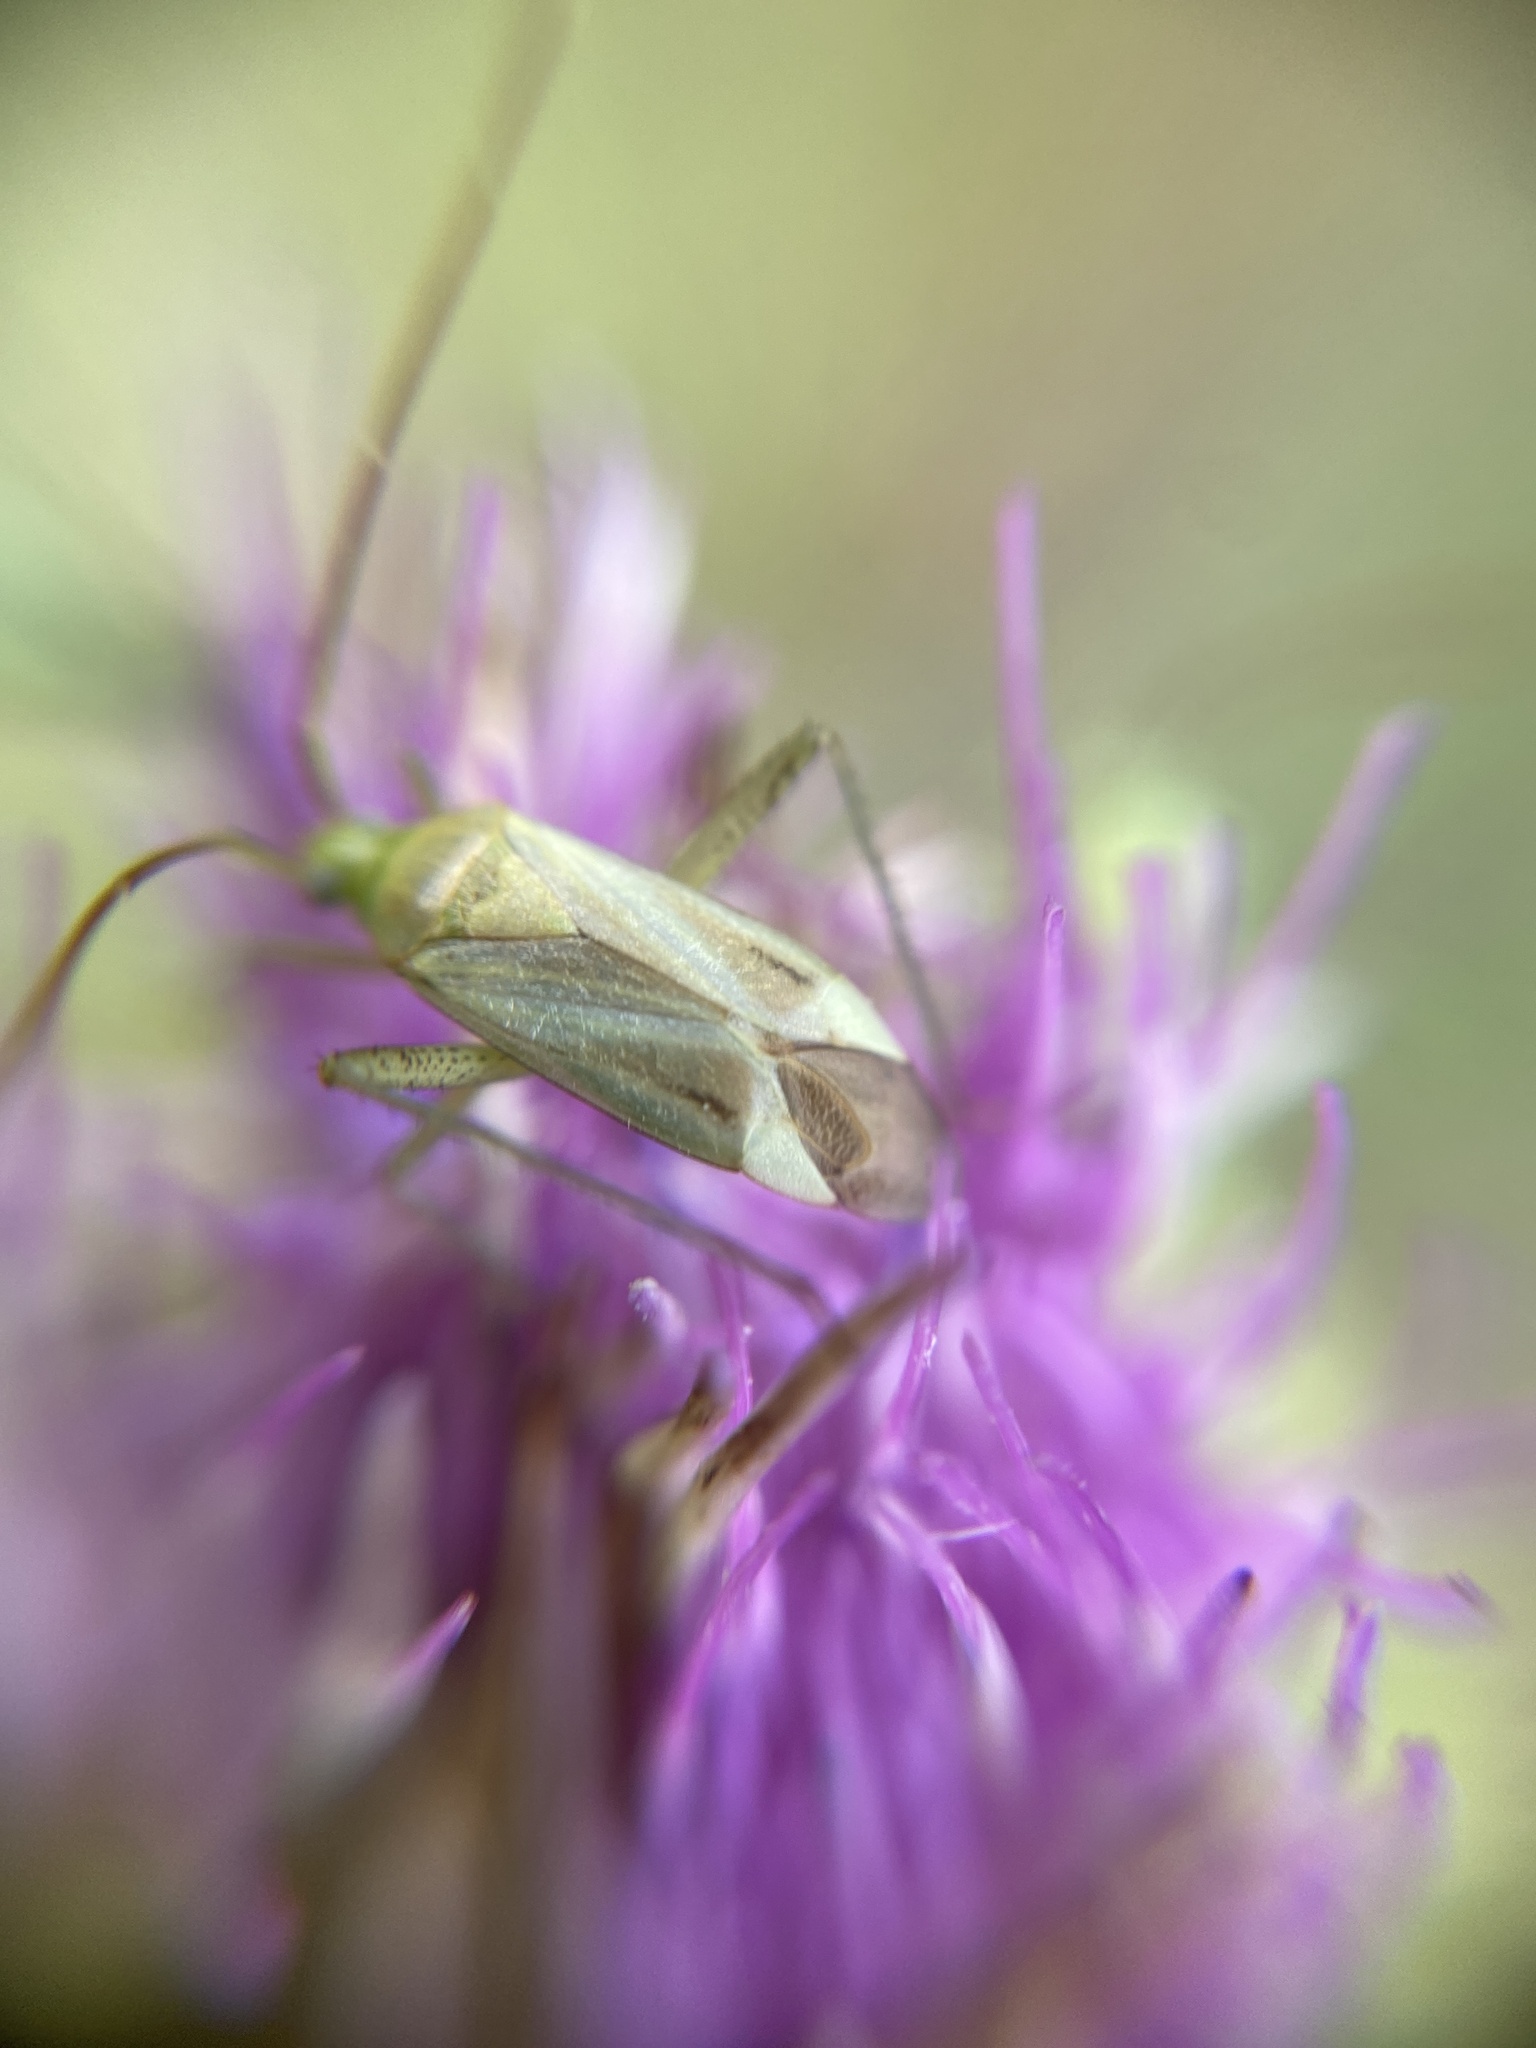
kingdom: Animalia
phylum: Arthropoda
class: Insecta
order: Hemiptera
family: Miridae
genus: Adelphocoris
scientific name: Adelphocoris lineolatus
